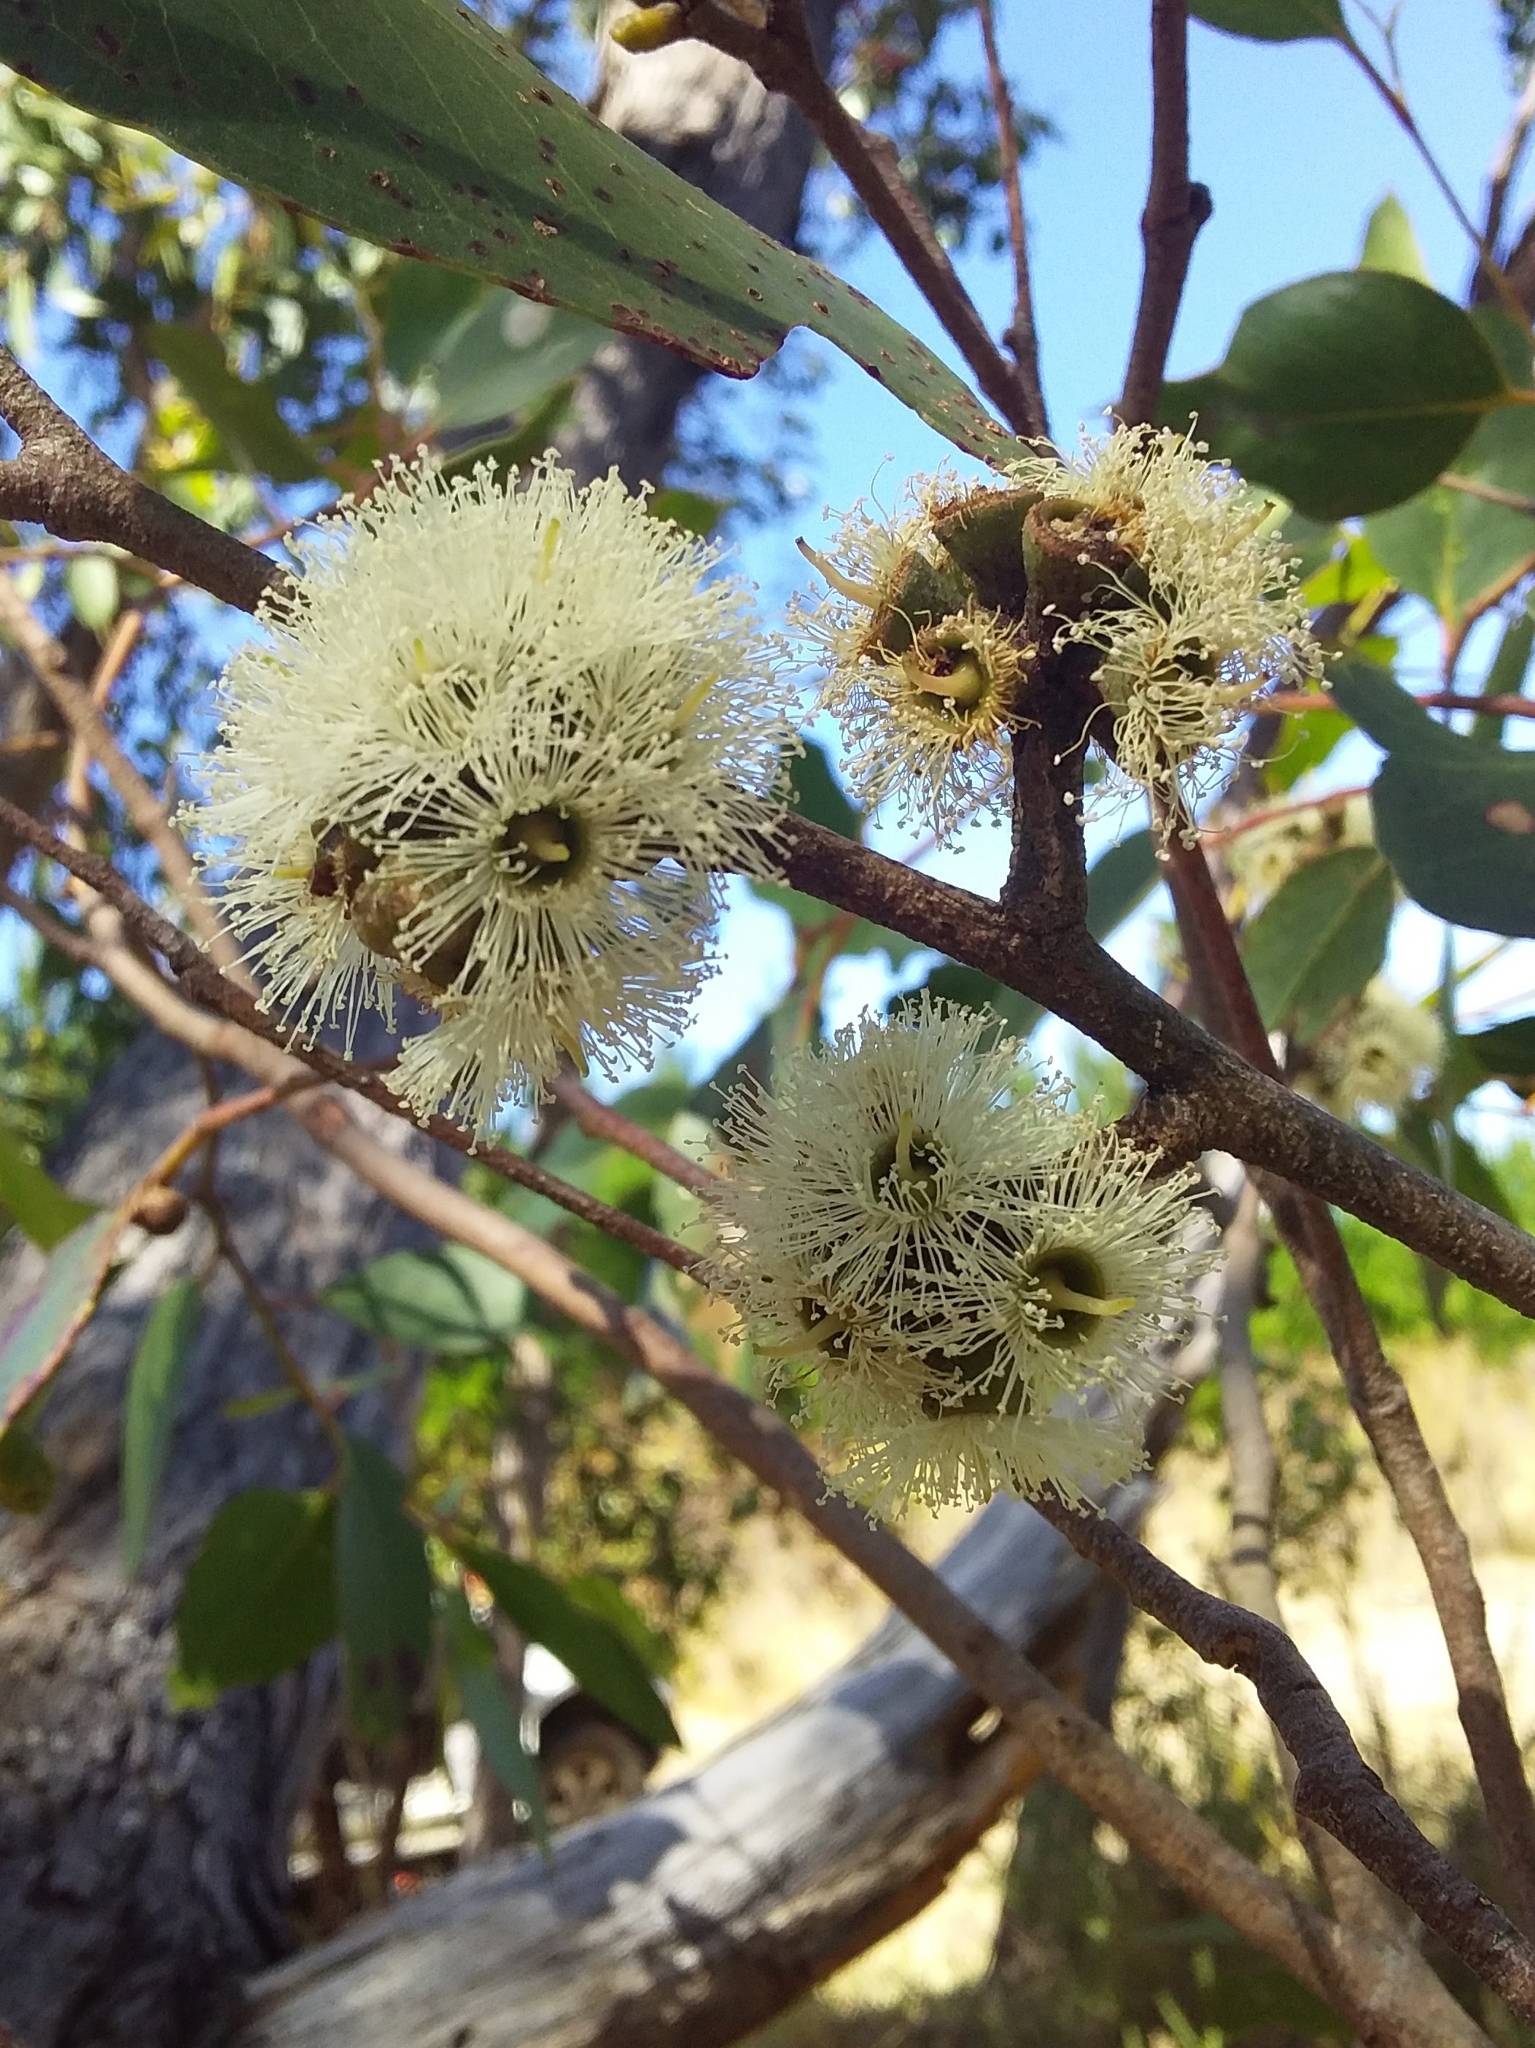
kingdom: Plantae
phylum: Tracheophyta
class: Magnoliopsida
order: Myrtales
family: Myrtaceae
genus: Eucalyptus
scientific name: Eucalyptus baxteri
